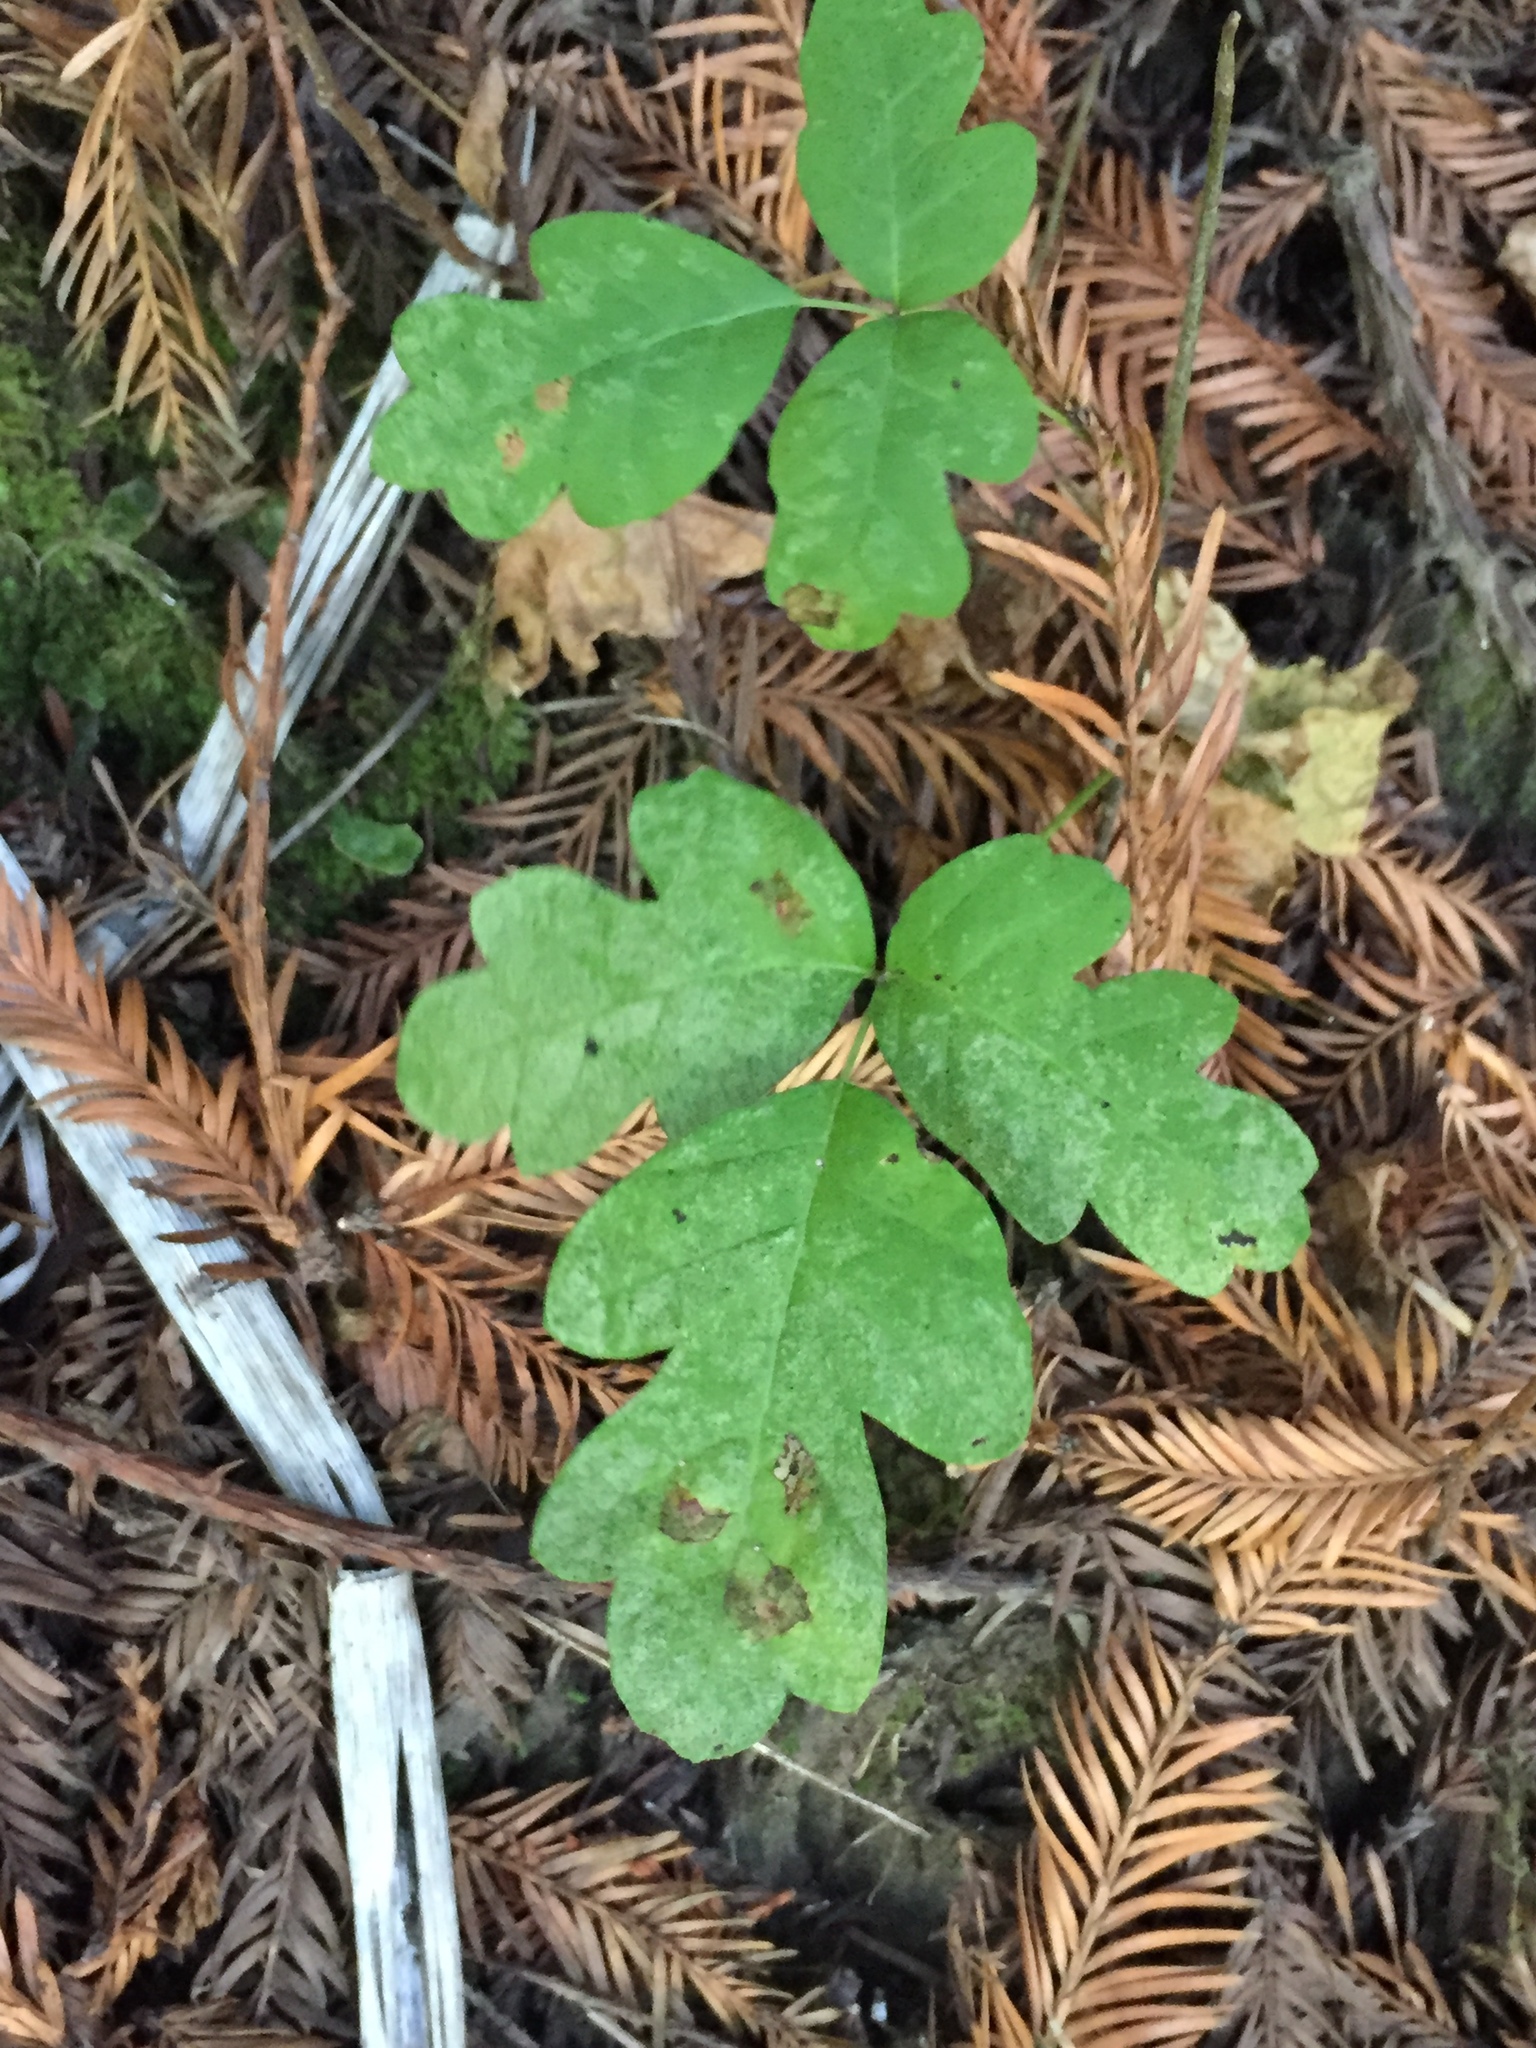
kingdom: Plantae
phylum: Tracheophyta
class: Magnoliopsida
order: Sapindales
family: Anacardiaceae
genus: Toxicodendron
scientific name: Toxicodendron diversilobum
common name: Pacific poison-oak
